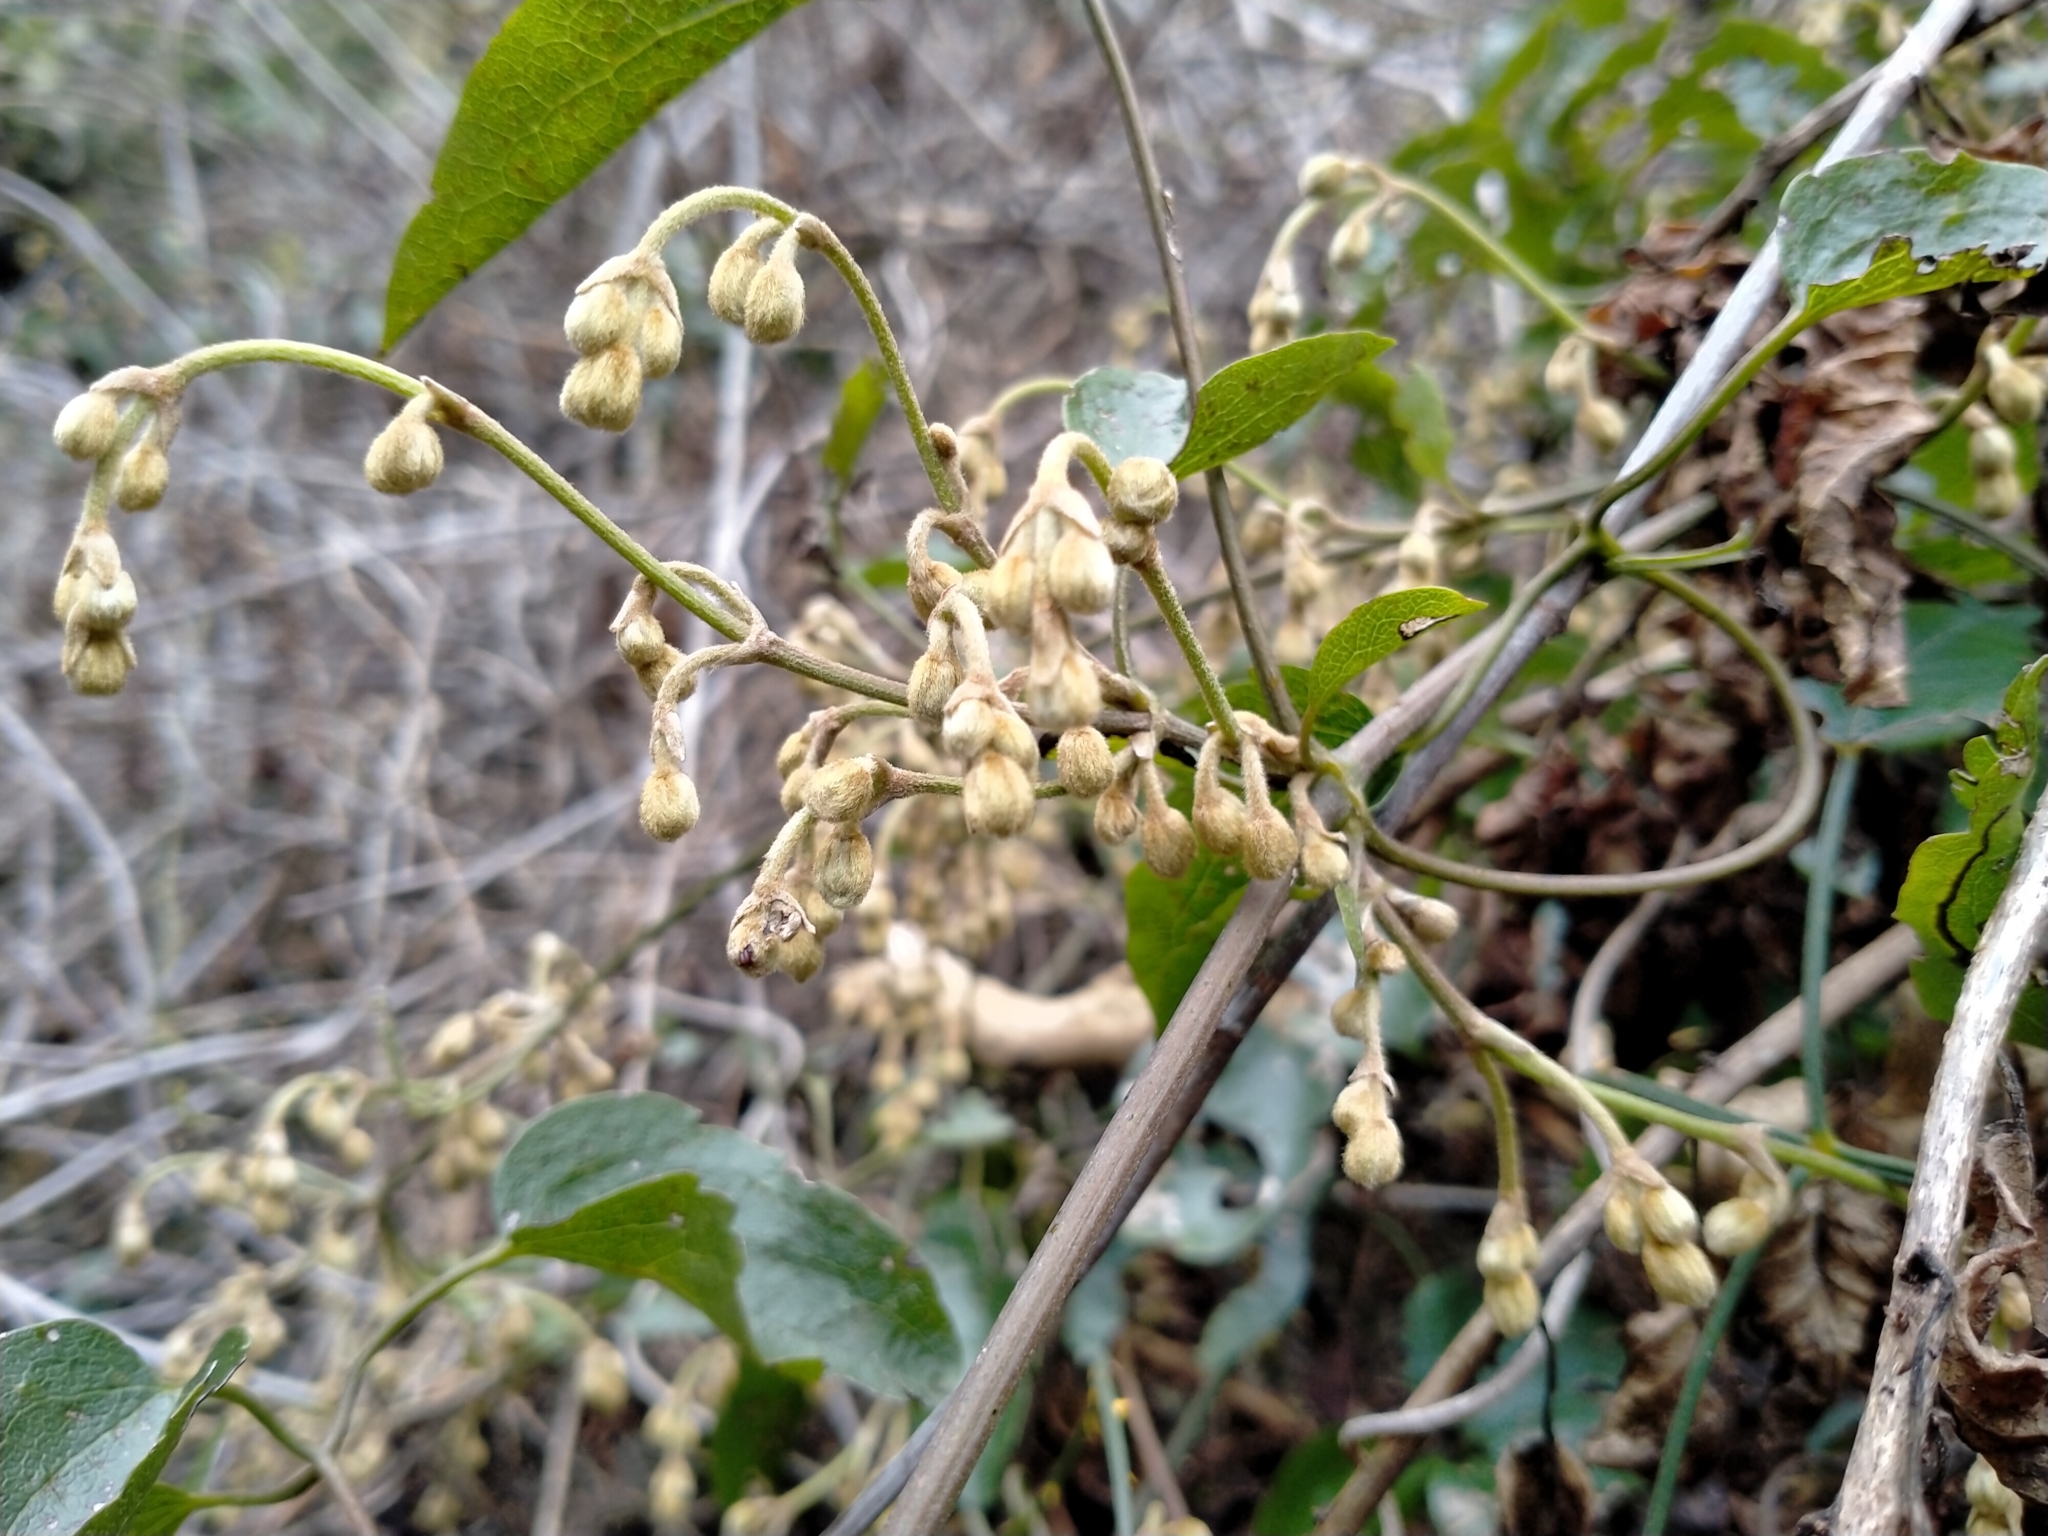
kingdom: Plantae
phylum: Tracheophyta
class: Magnoliopsida
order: Ranunculales
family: Ranunculaceae
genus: Clematis
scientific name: Clematis foetida
